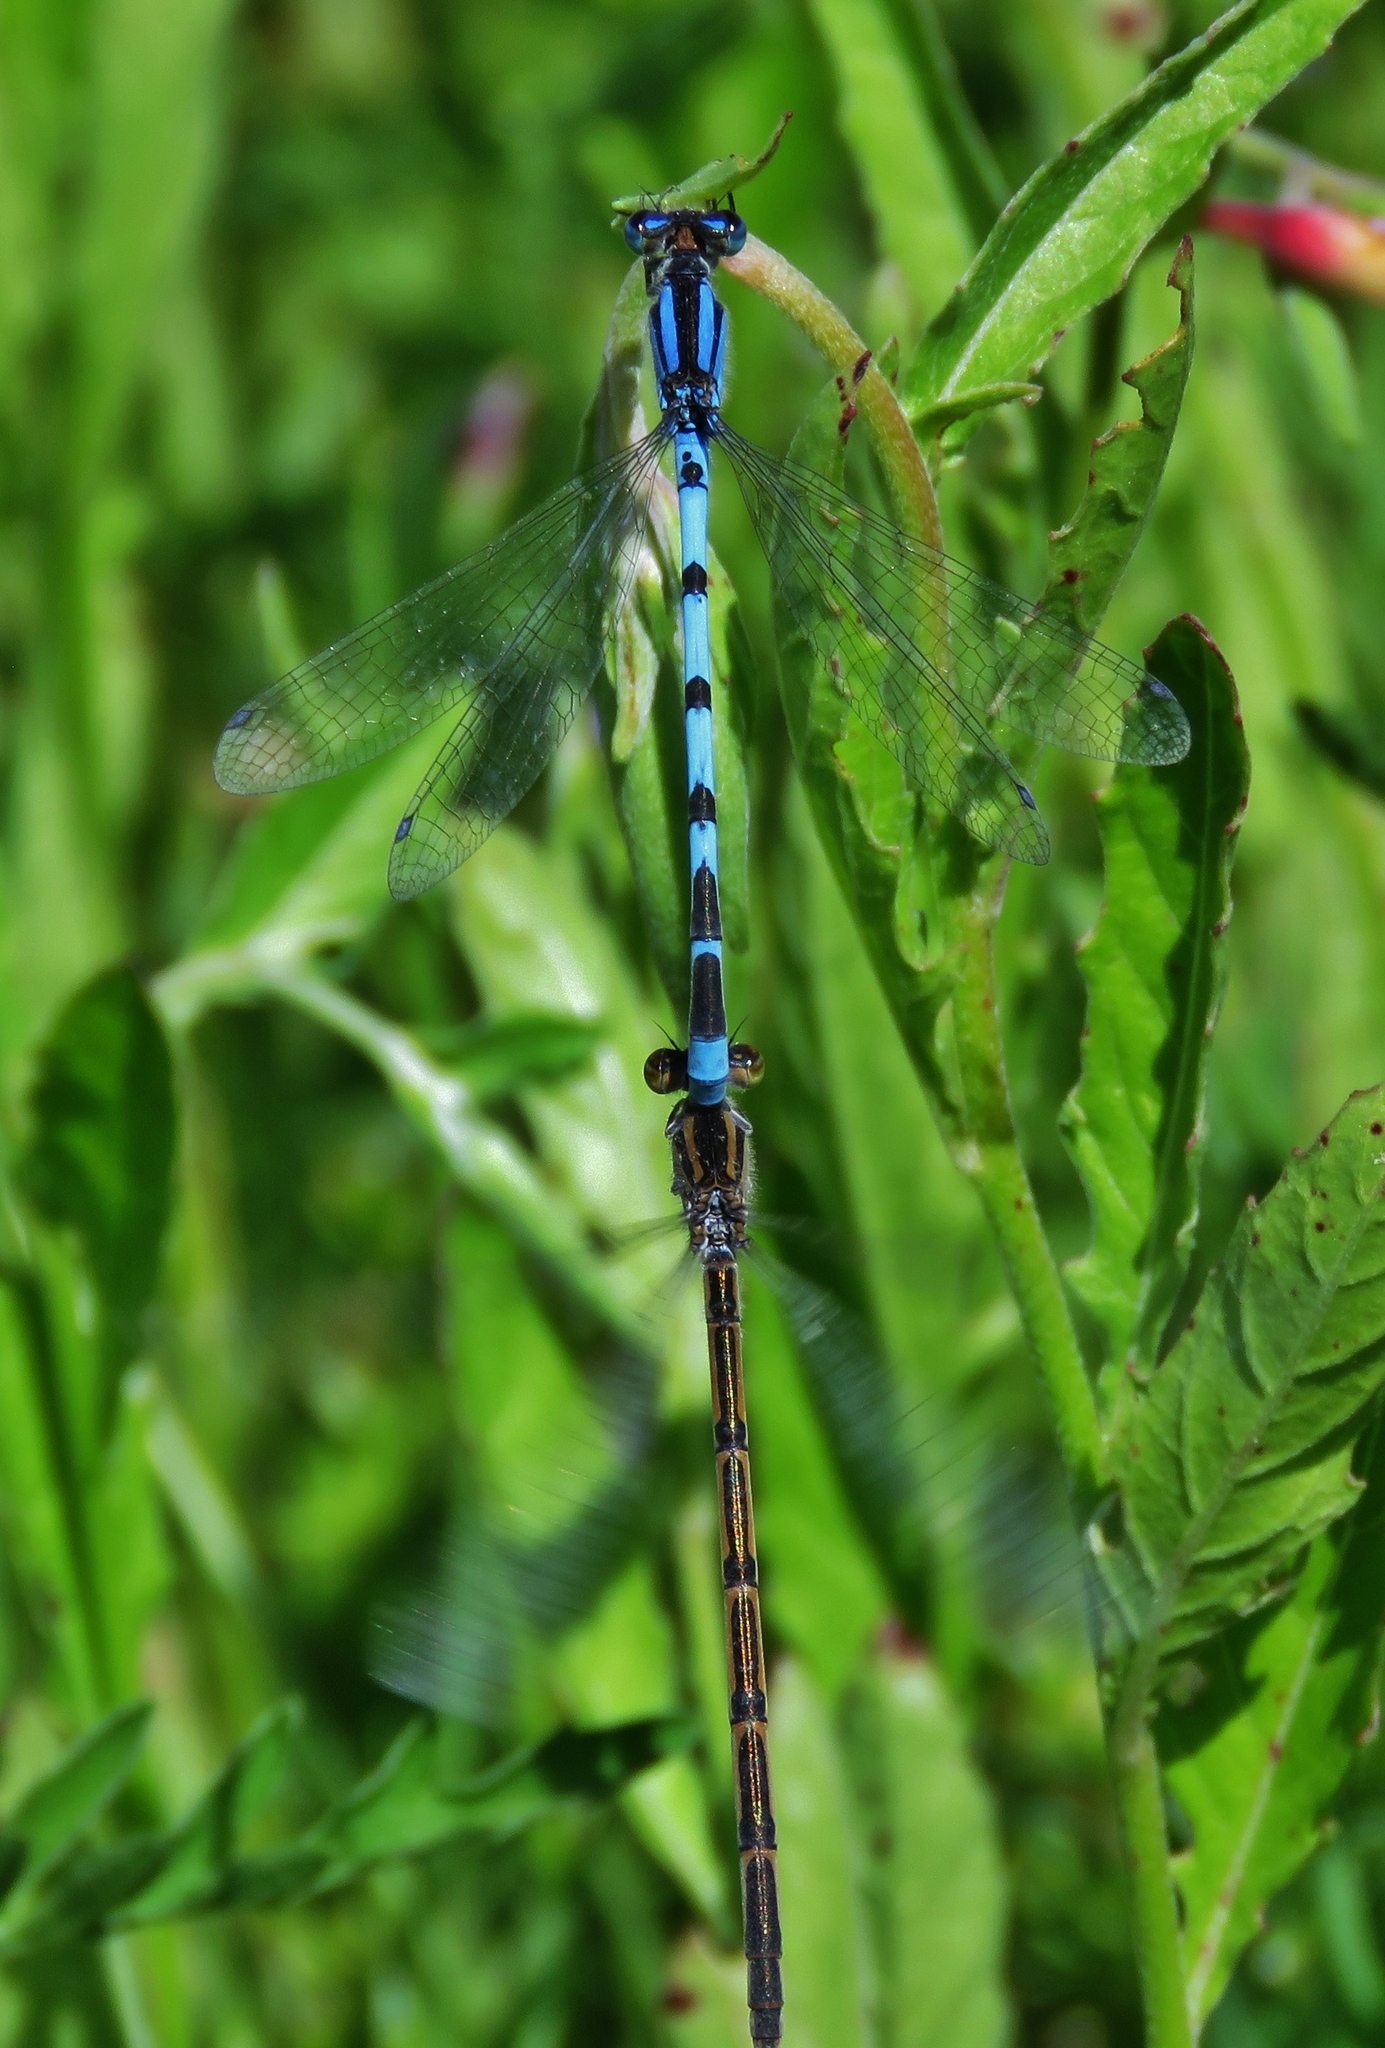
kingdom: Animalia
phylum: Arthropoda
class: Insecta
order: Odonata
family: Coenagrionidae
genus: Enallagma
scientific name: Enallagma civile
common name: Damselfly
